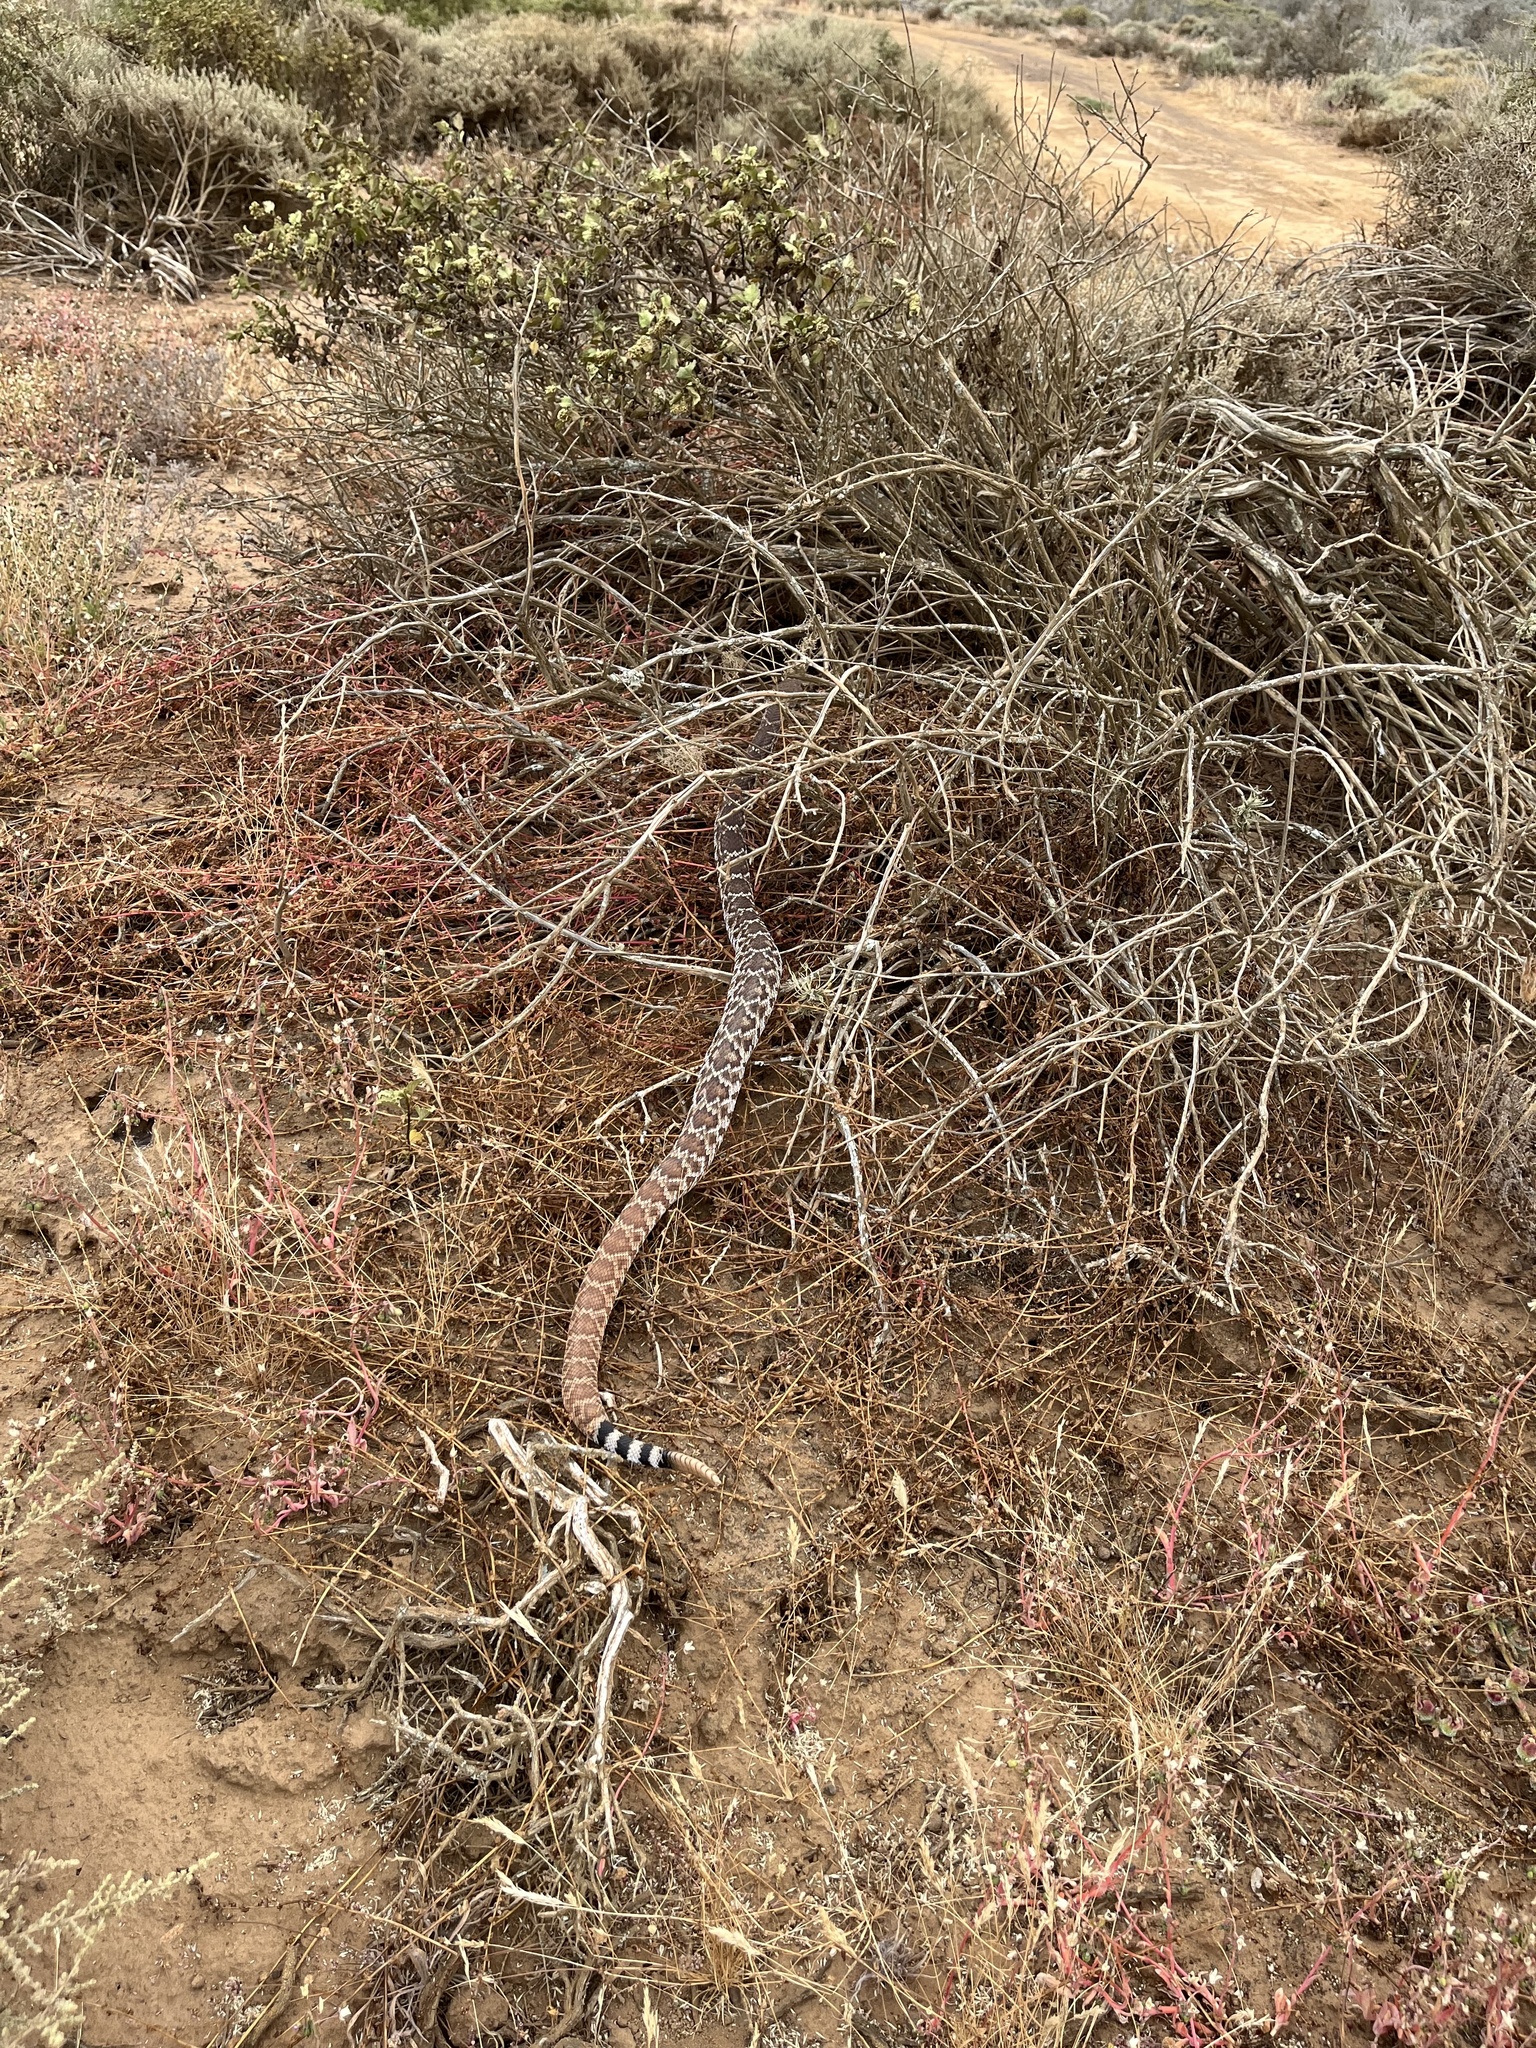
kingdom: Animalia
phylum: Chordata
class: Squamata
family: Viperidae
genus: Crotalus
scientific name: Crotalus ruber
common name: Red diamond rattlesnake
